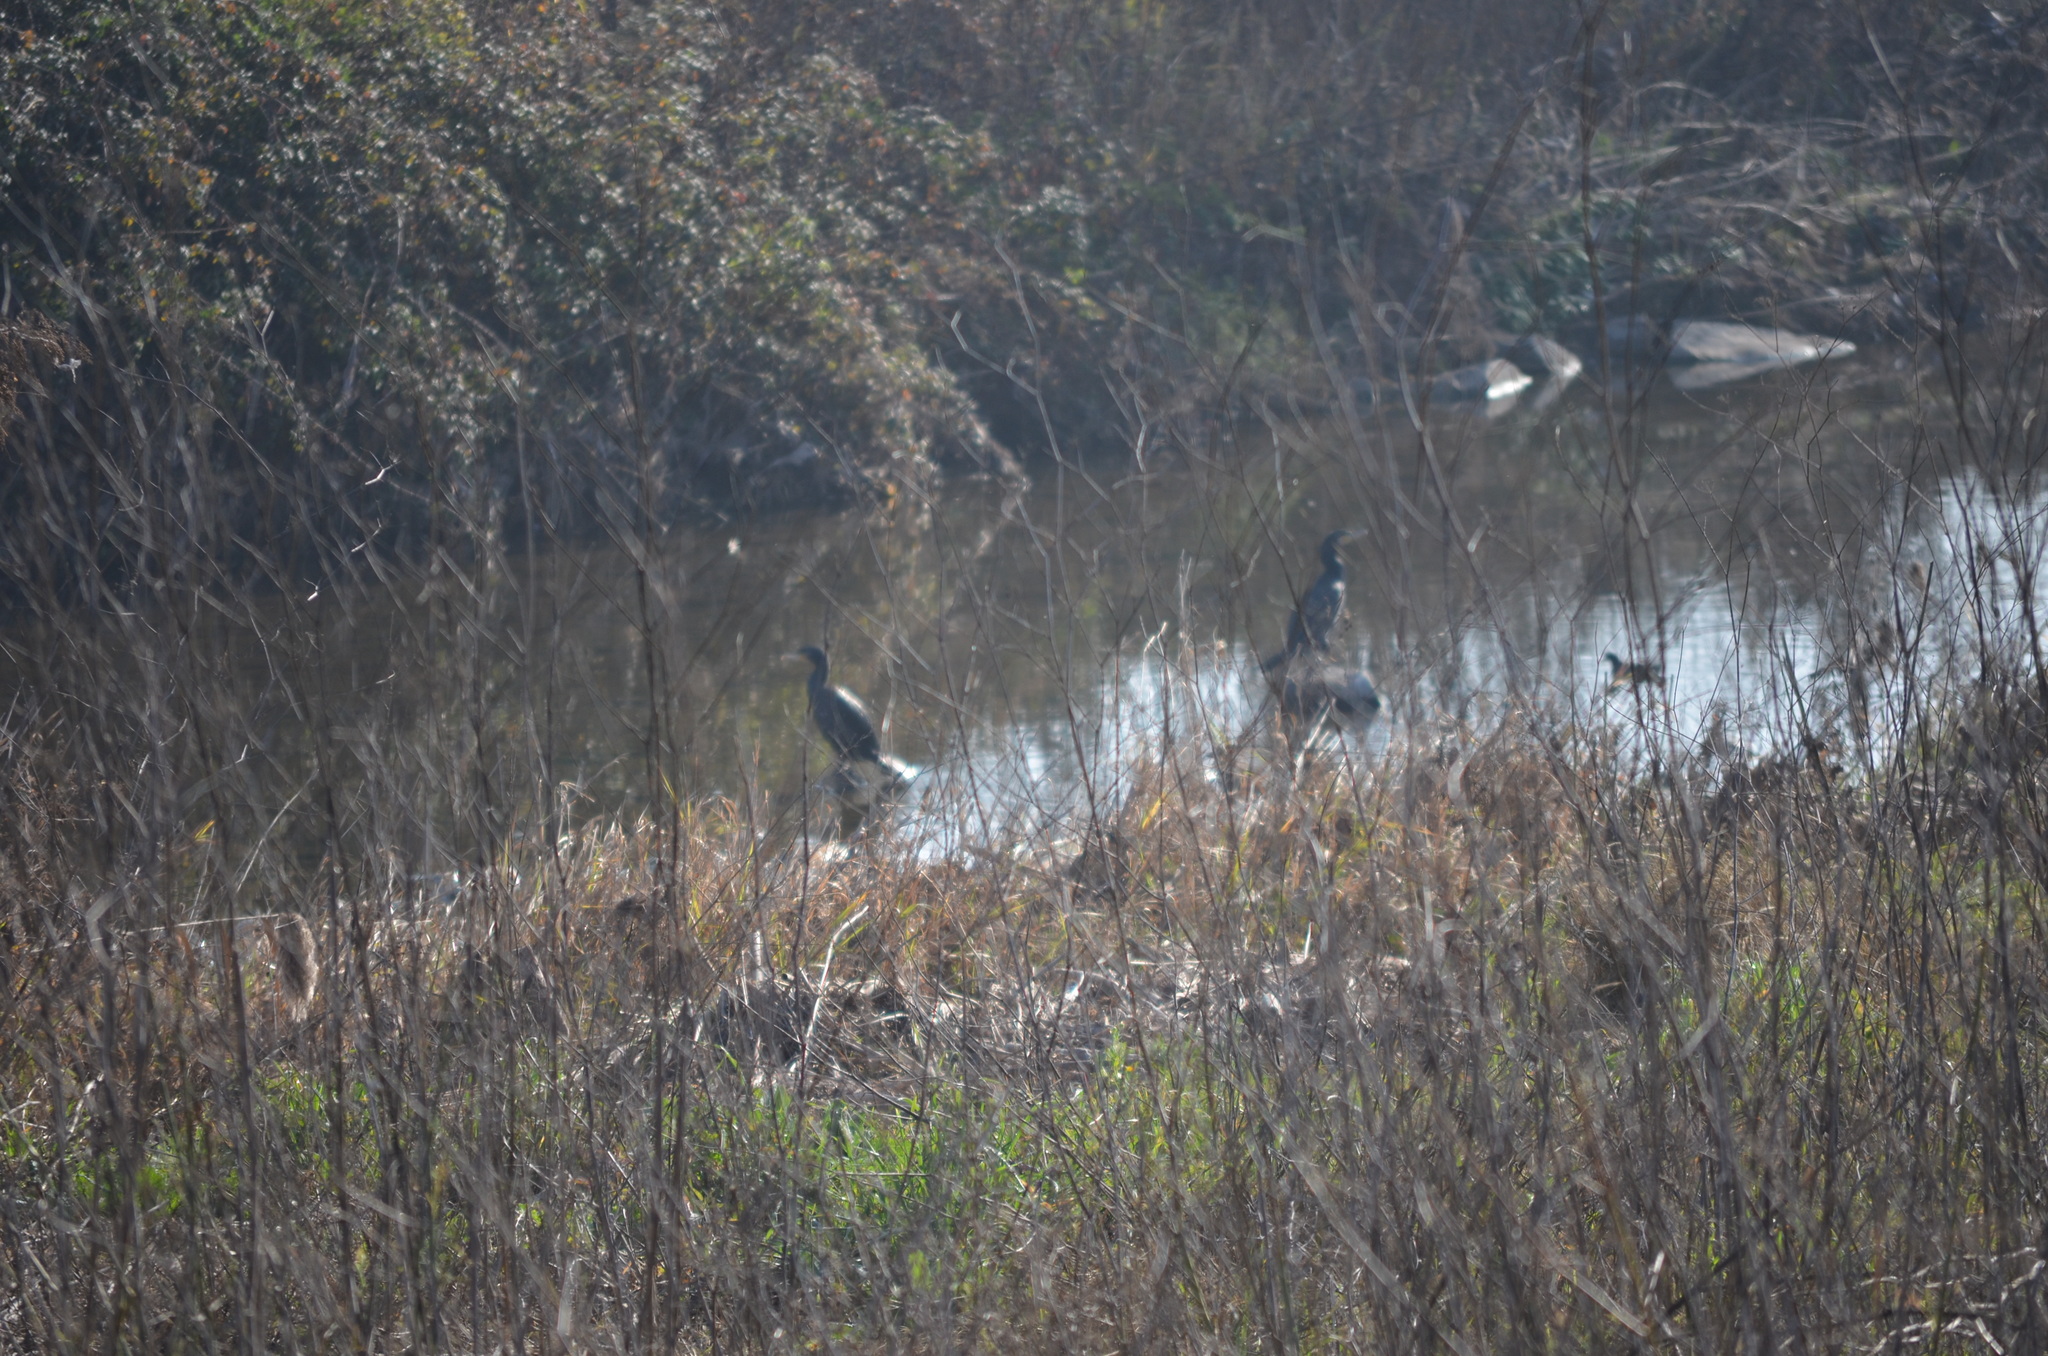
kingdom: Animalia
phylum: Chordata
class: Aves
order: Suliformes
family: Phalacrocoracidae
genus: Phalacrocorax
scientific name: Phalacrocorax carbo
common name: Great cormorant
